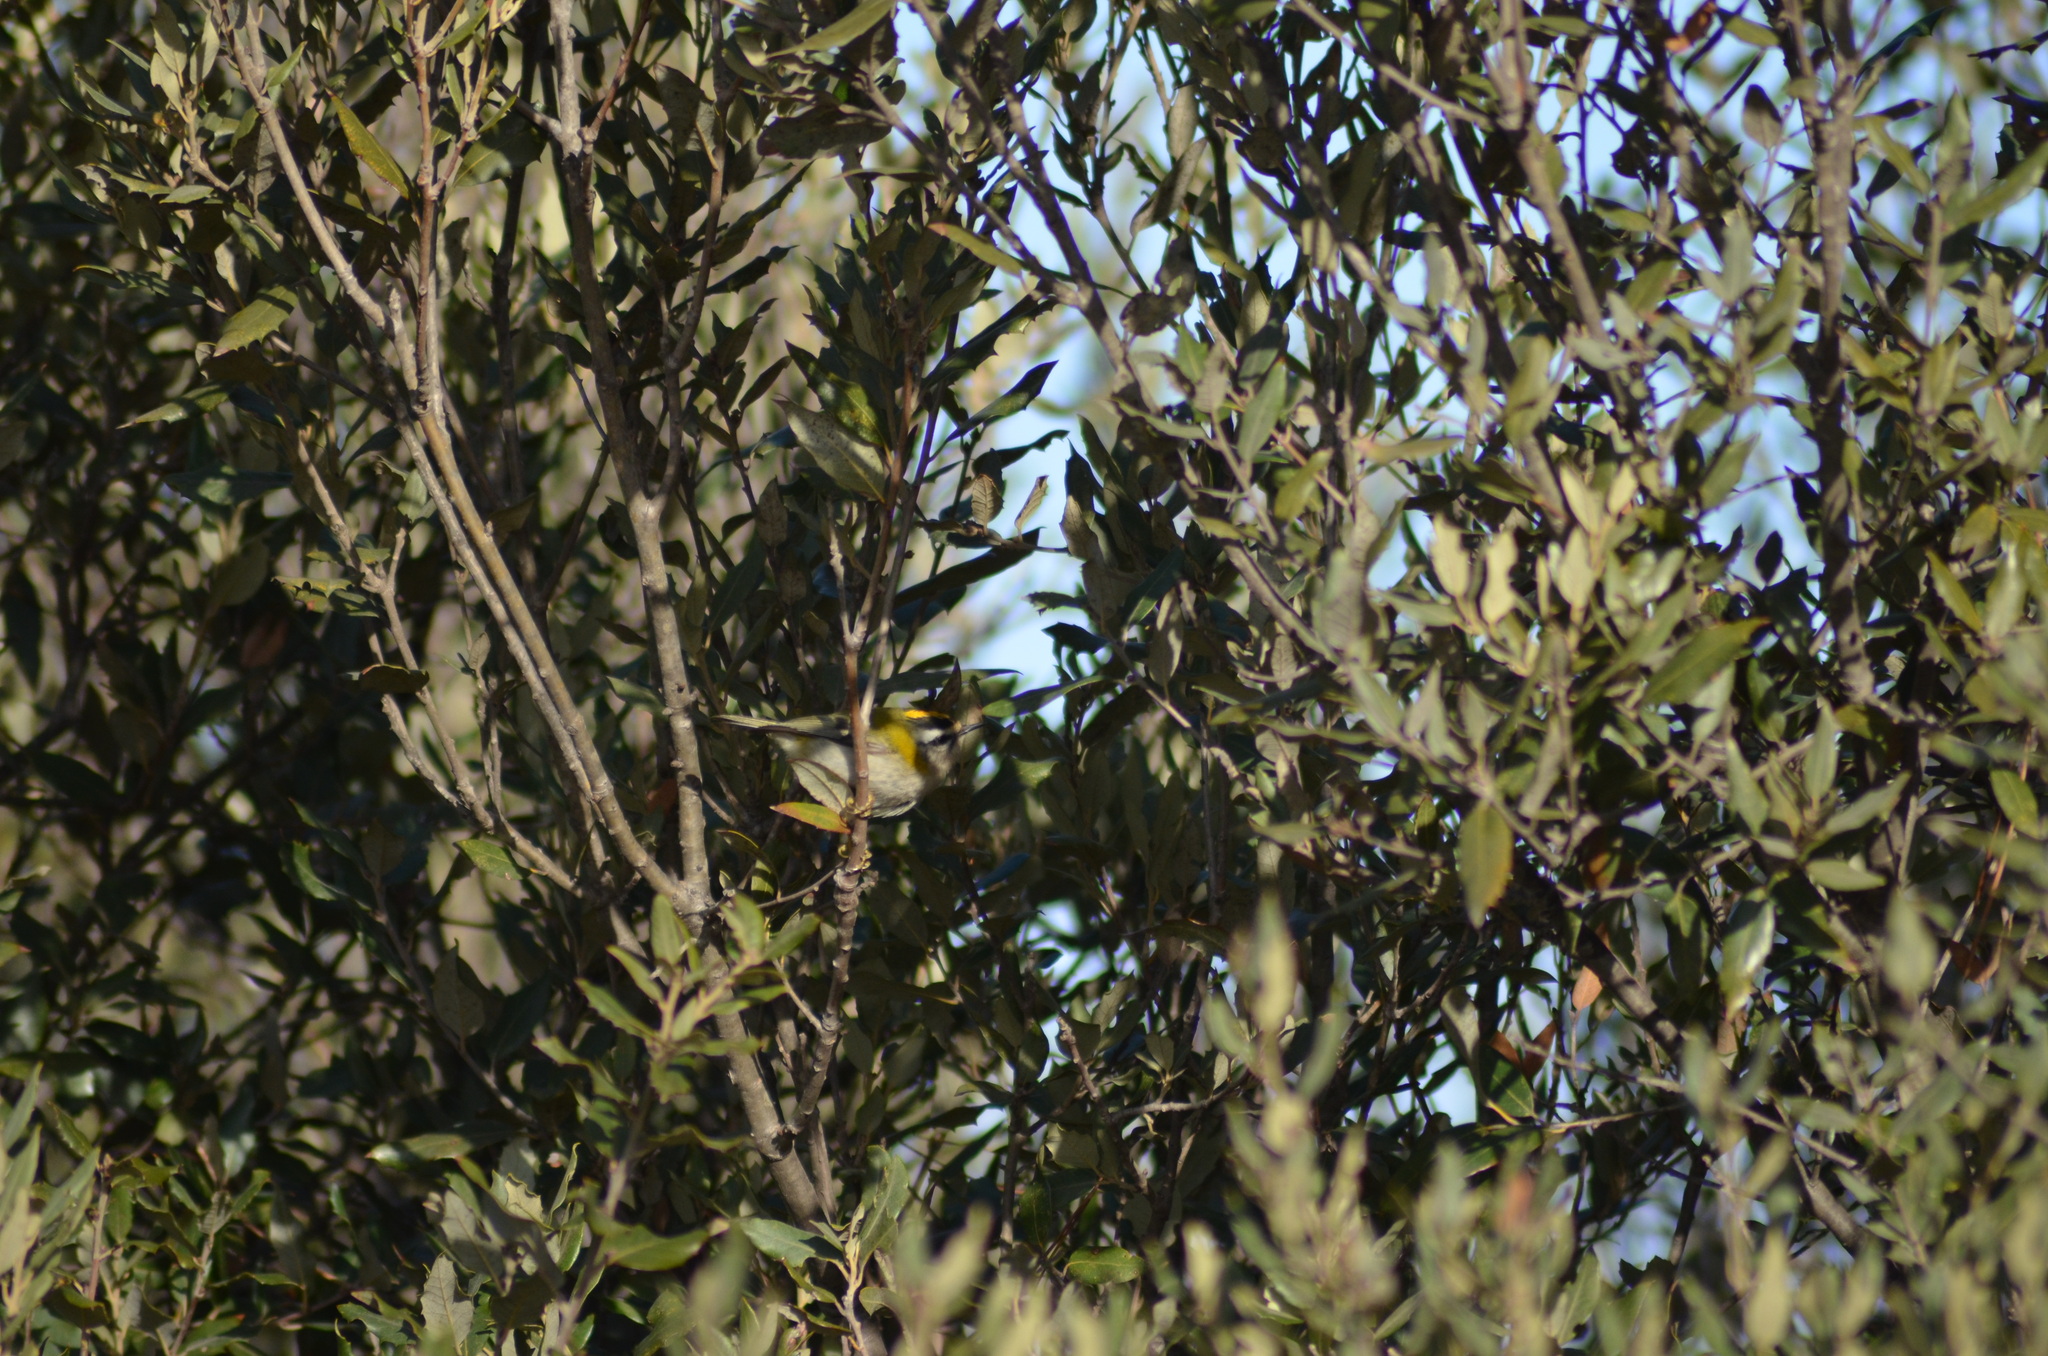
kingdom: Animalia
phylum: Chordata
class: Aves
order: Passeriformes
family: Regulidae
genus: Regulus
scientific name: Regulus ignicapilla
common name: Firecrest
